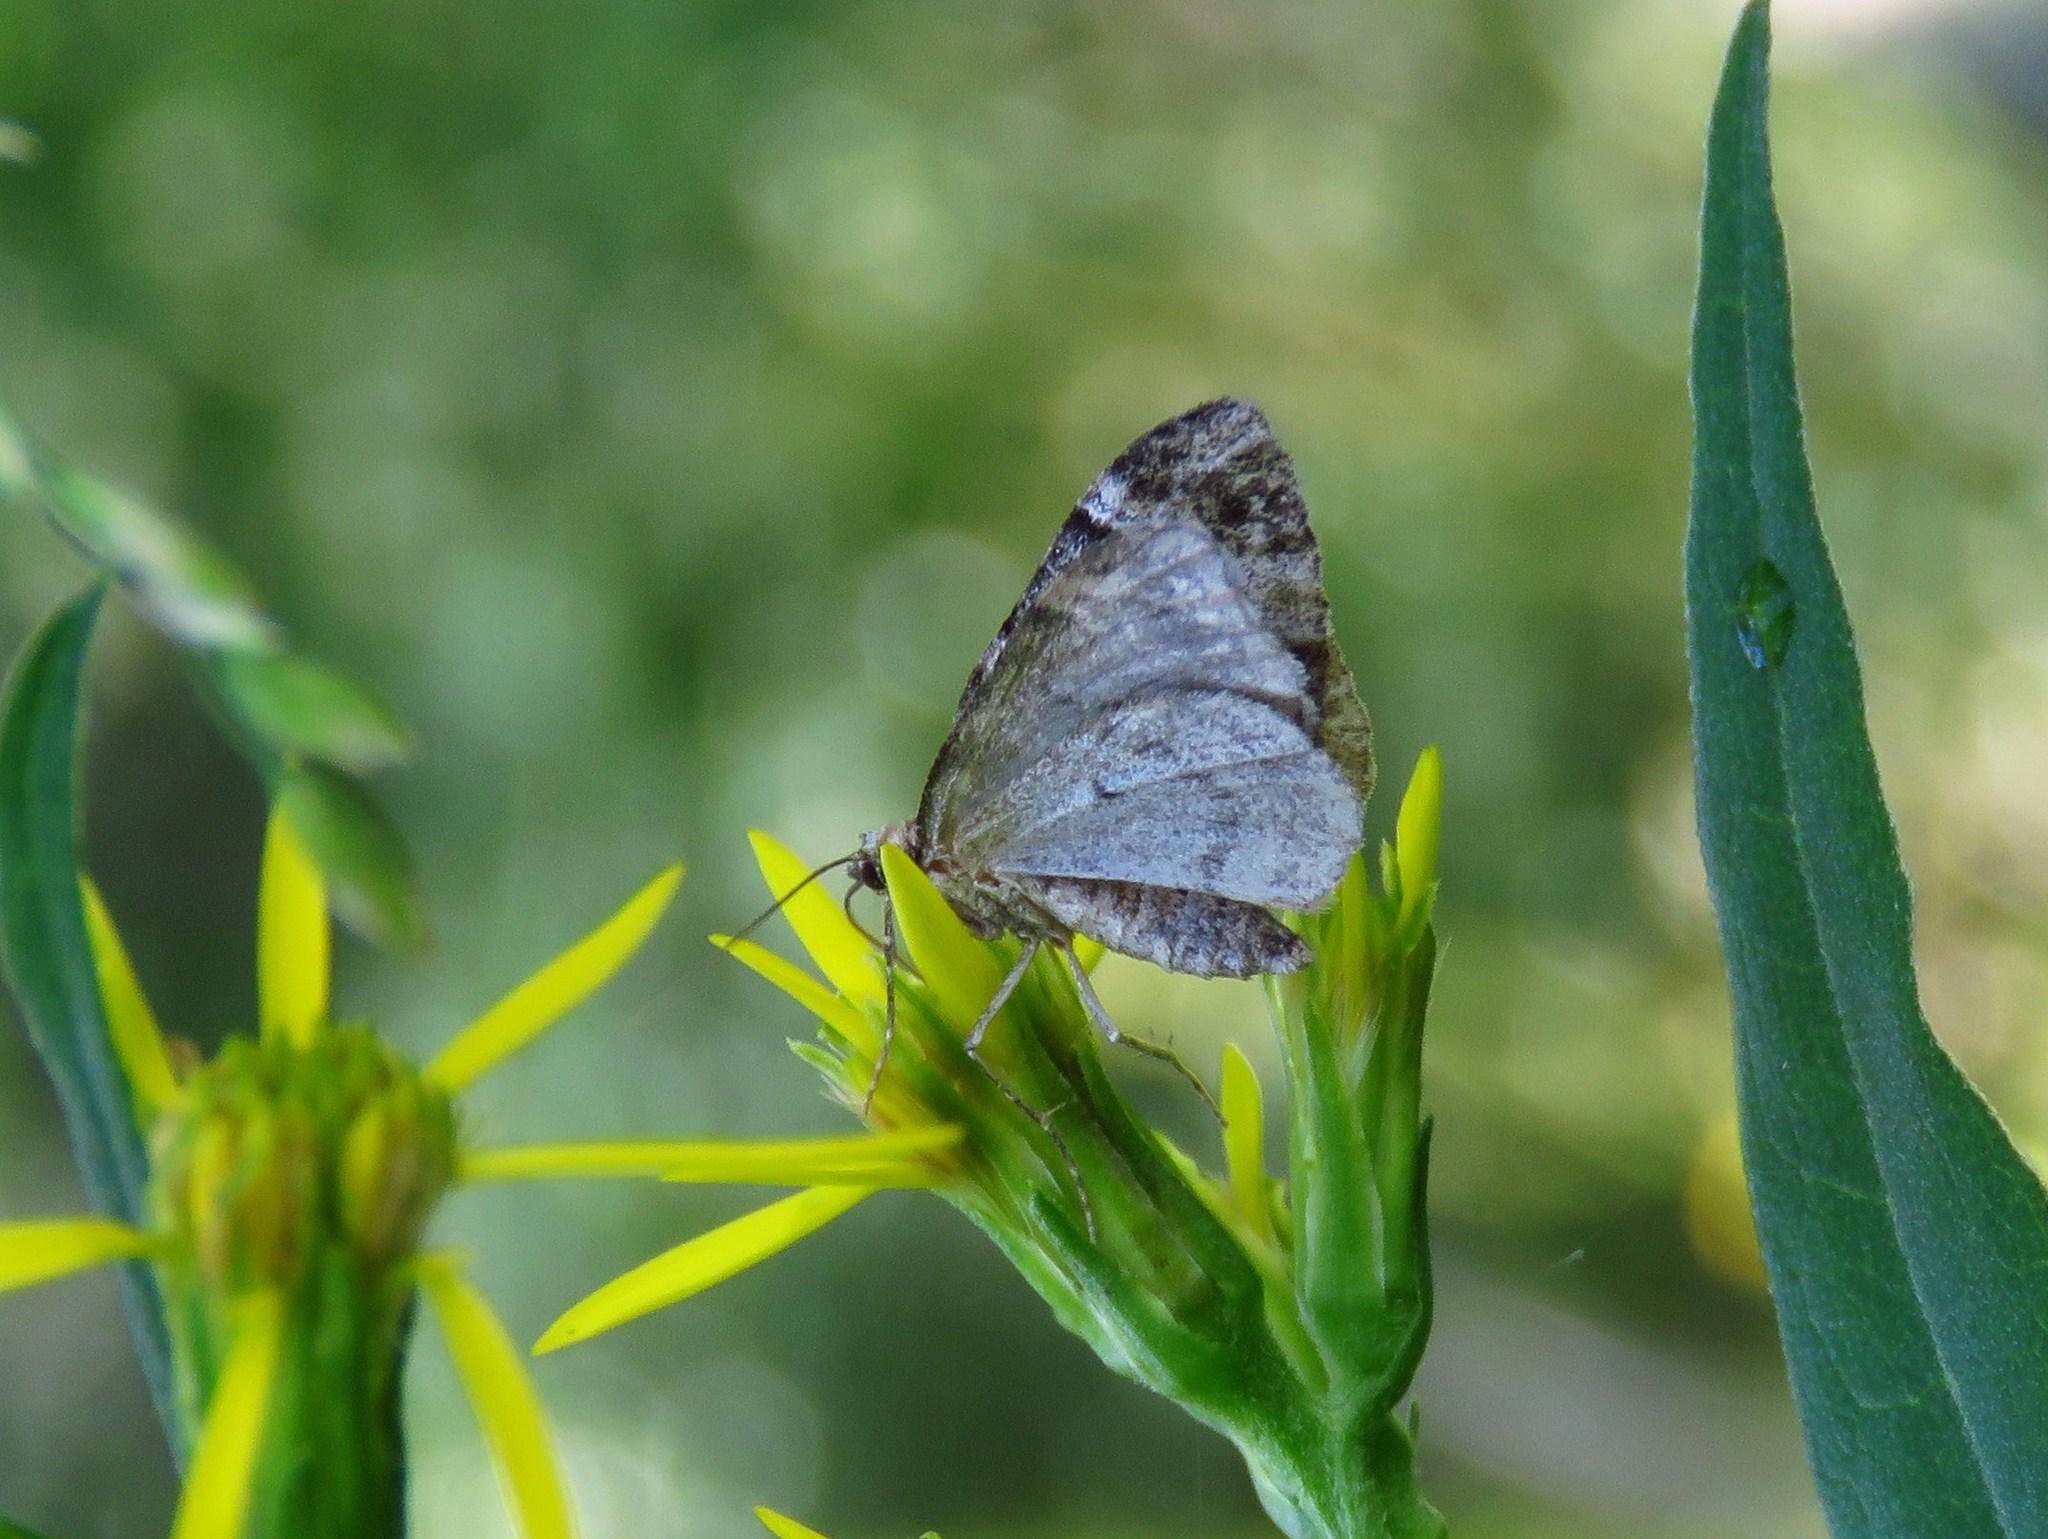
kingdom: Animalia
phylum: Arthropoda
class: Insecta
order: Lepidoptera
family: Geometridae
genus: Dysstroma
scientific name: Dysstroma truncata
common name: Common marbled carpet
